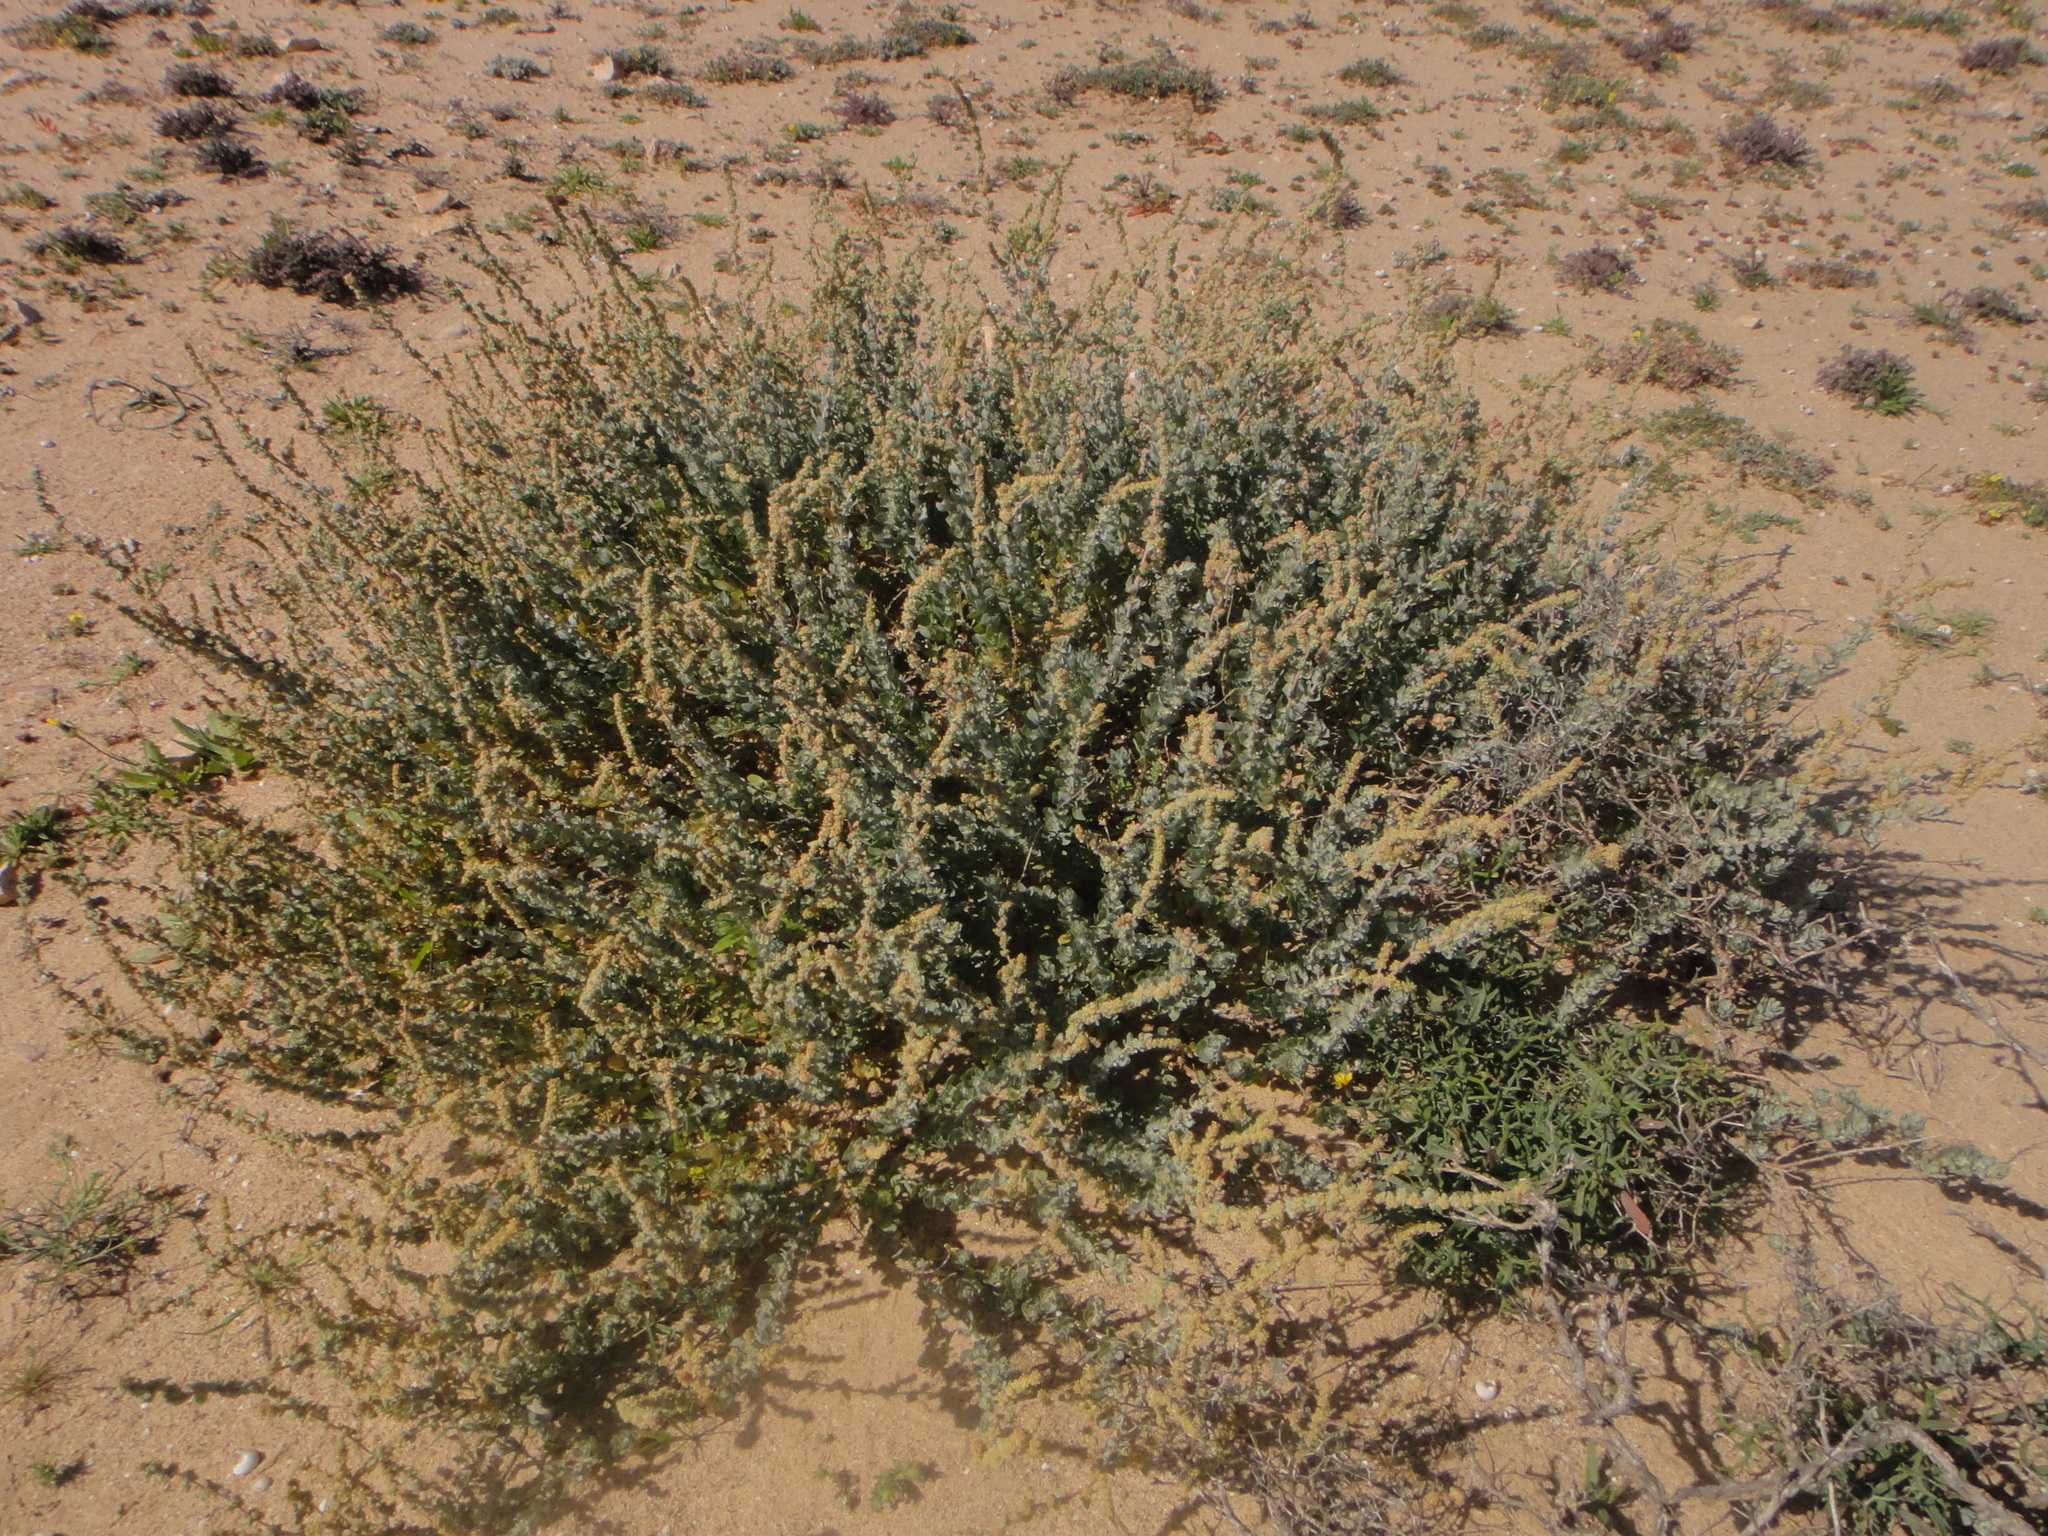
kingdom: Plantae
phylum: Tracheophyta
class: Magnoliopsida
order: Caryophyllales
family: Amaranthaceae
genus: Atriplex
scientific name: Atriplex glauca
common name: Waxy saltbush
